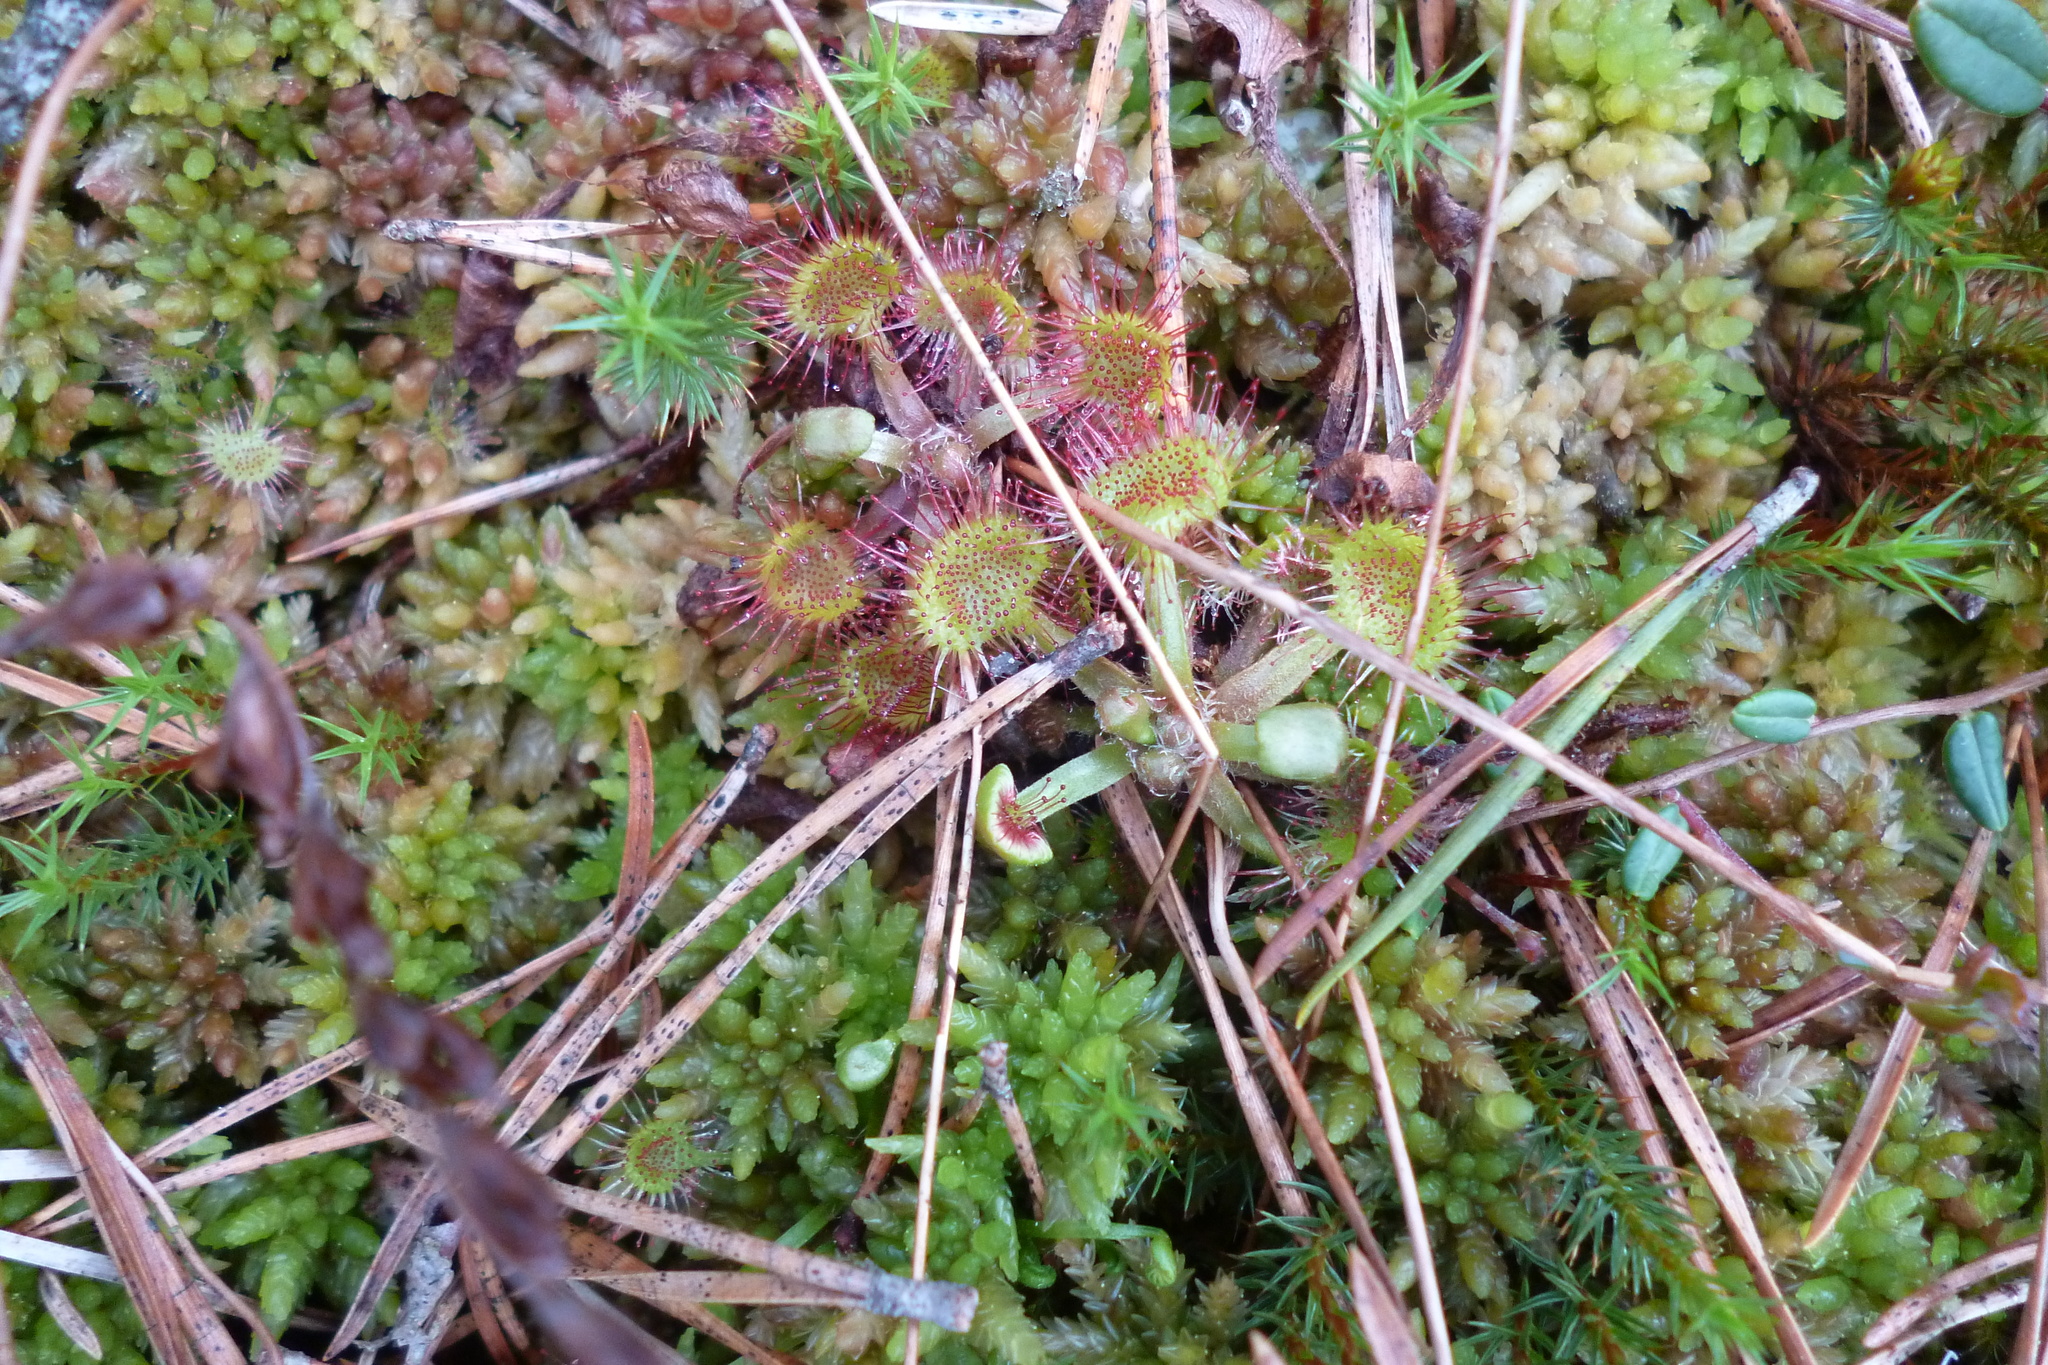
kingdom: Plantae
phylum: Tracheophyta
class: Magnoliopsida
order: Caryophyllales
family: Droseraceae
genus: Drosera
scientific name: Drosera rotundifolia
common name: Round-leaved sundew
